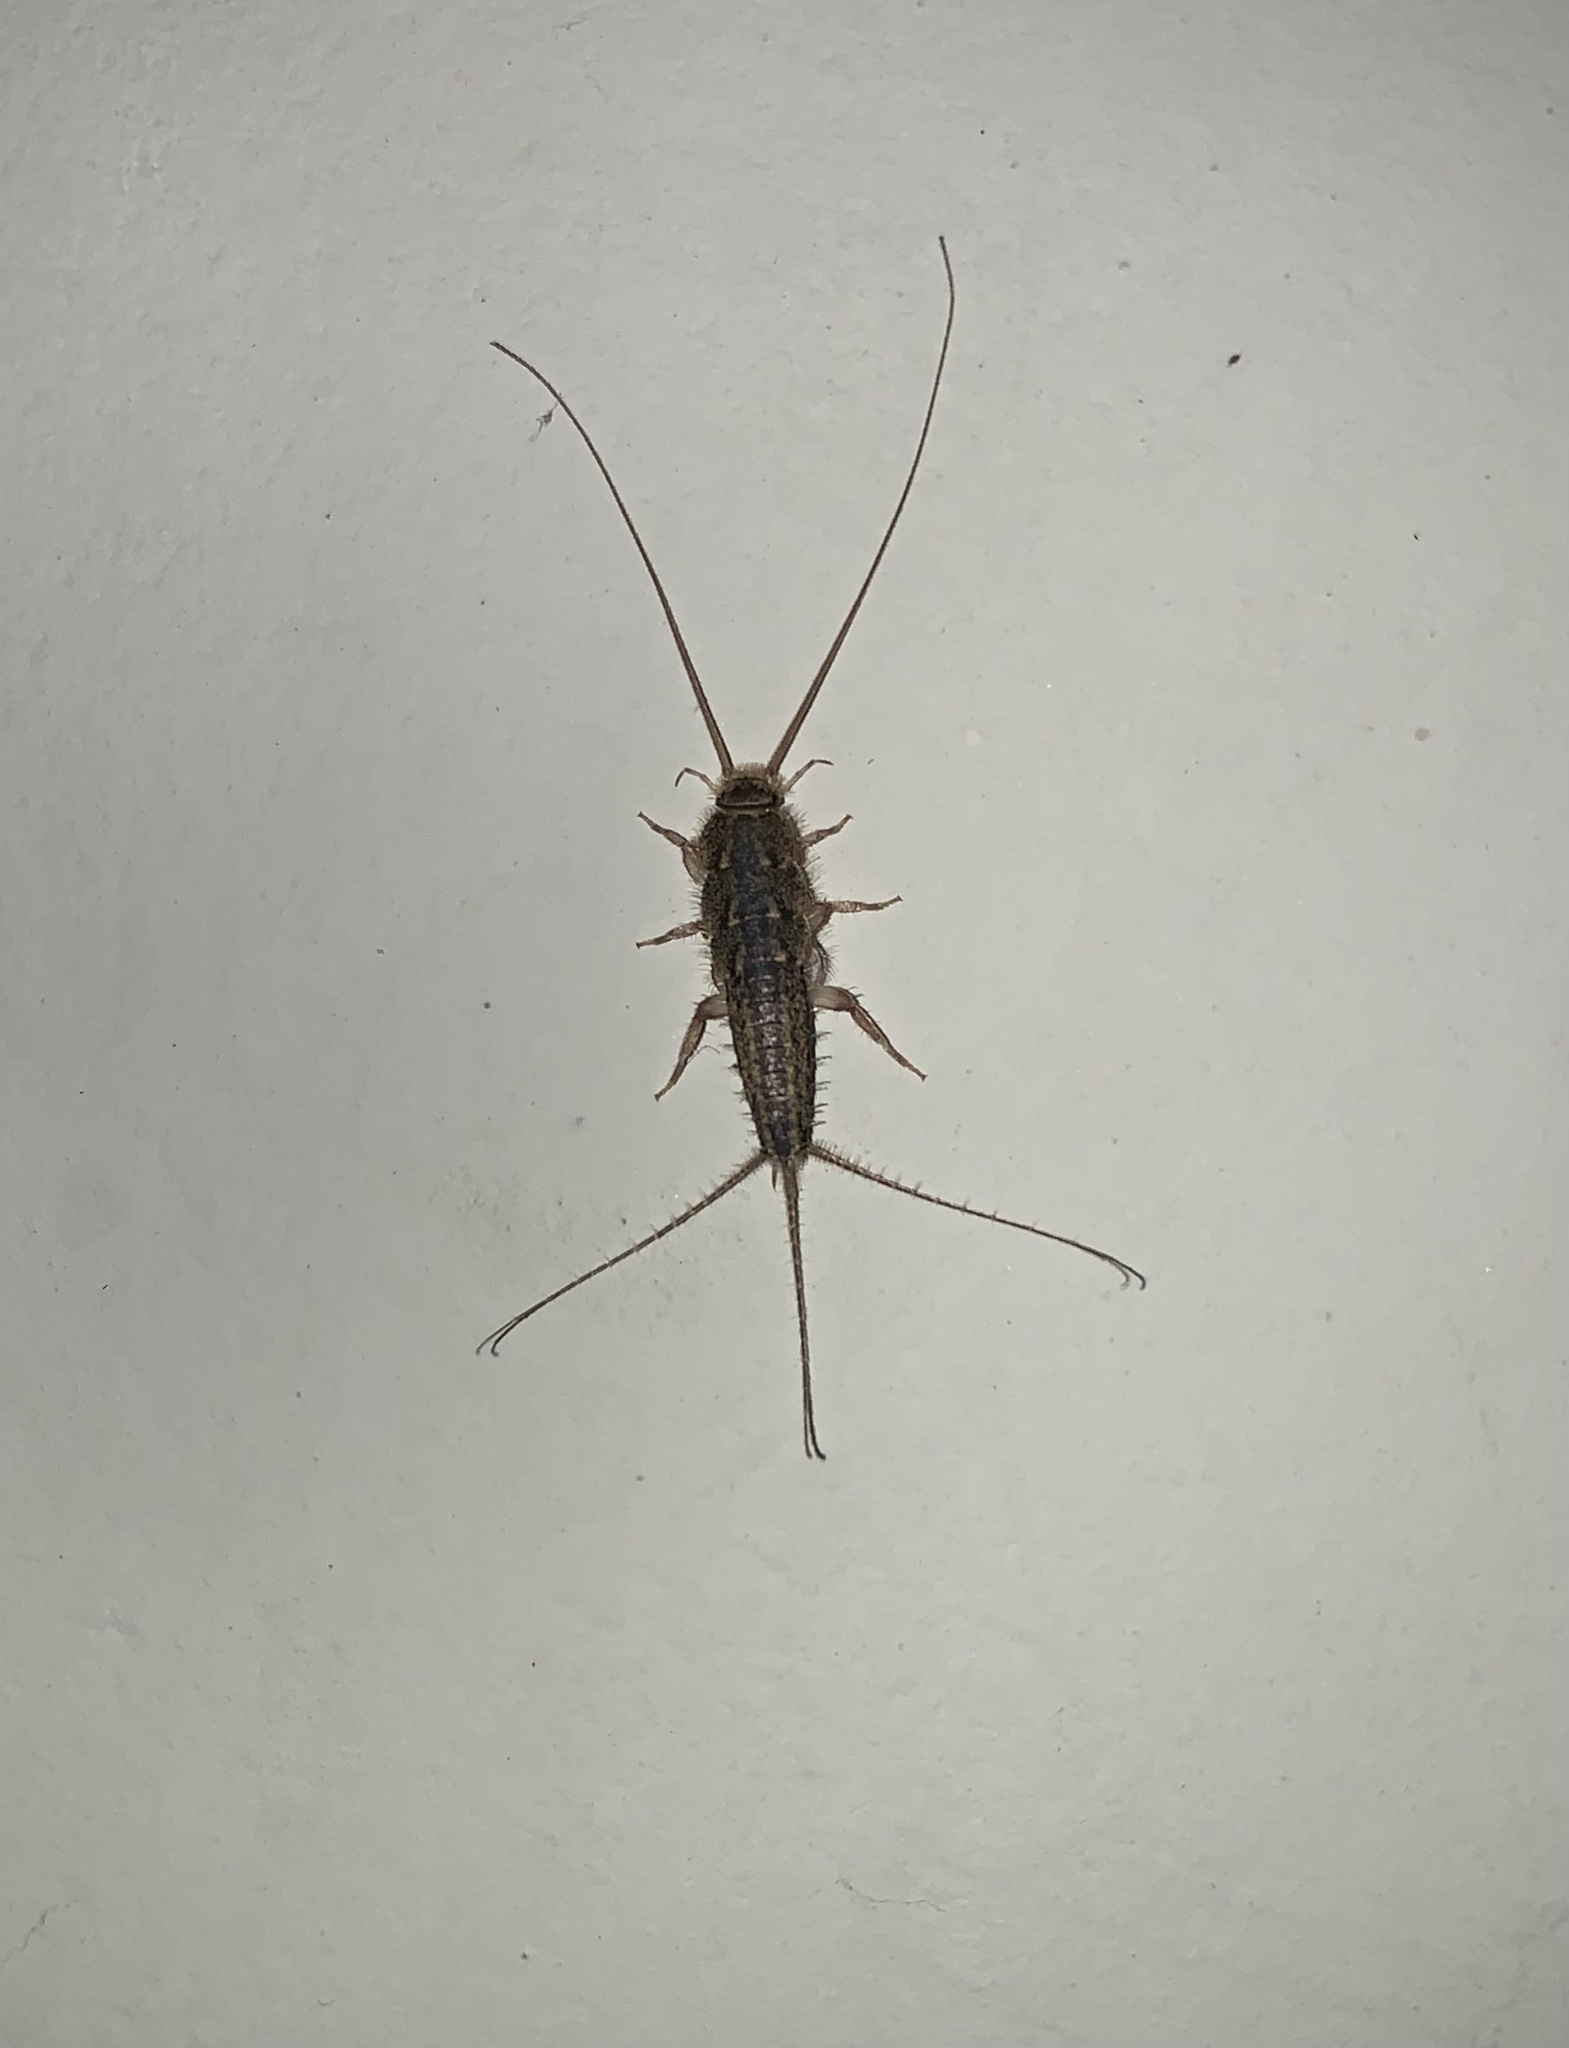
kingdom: Animalia
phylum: Arthropoda
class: Insecta
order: Zygentoma
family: Lepismatidae
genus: Ctenolepisma
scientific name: Ctenolepisma lineata
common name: Four-lined silverfish
